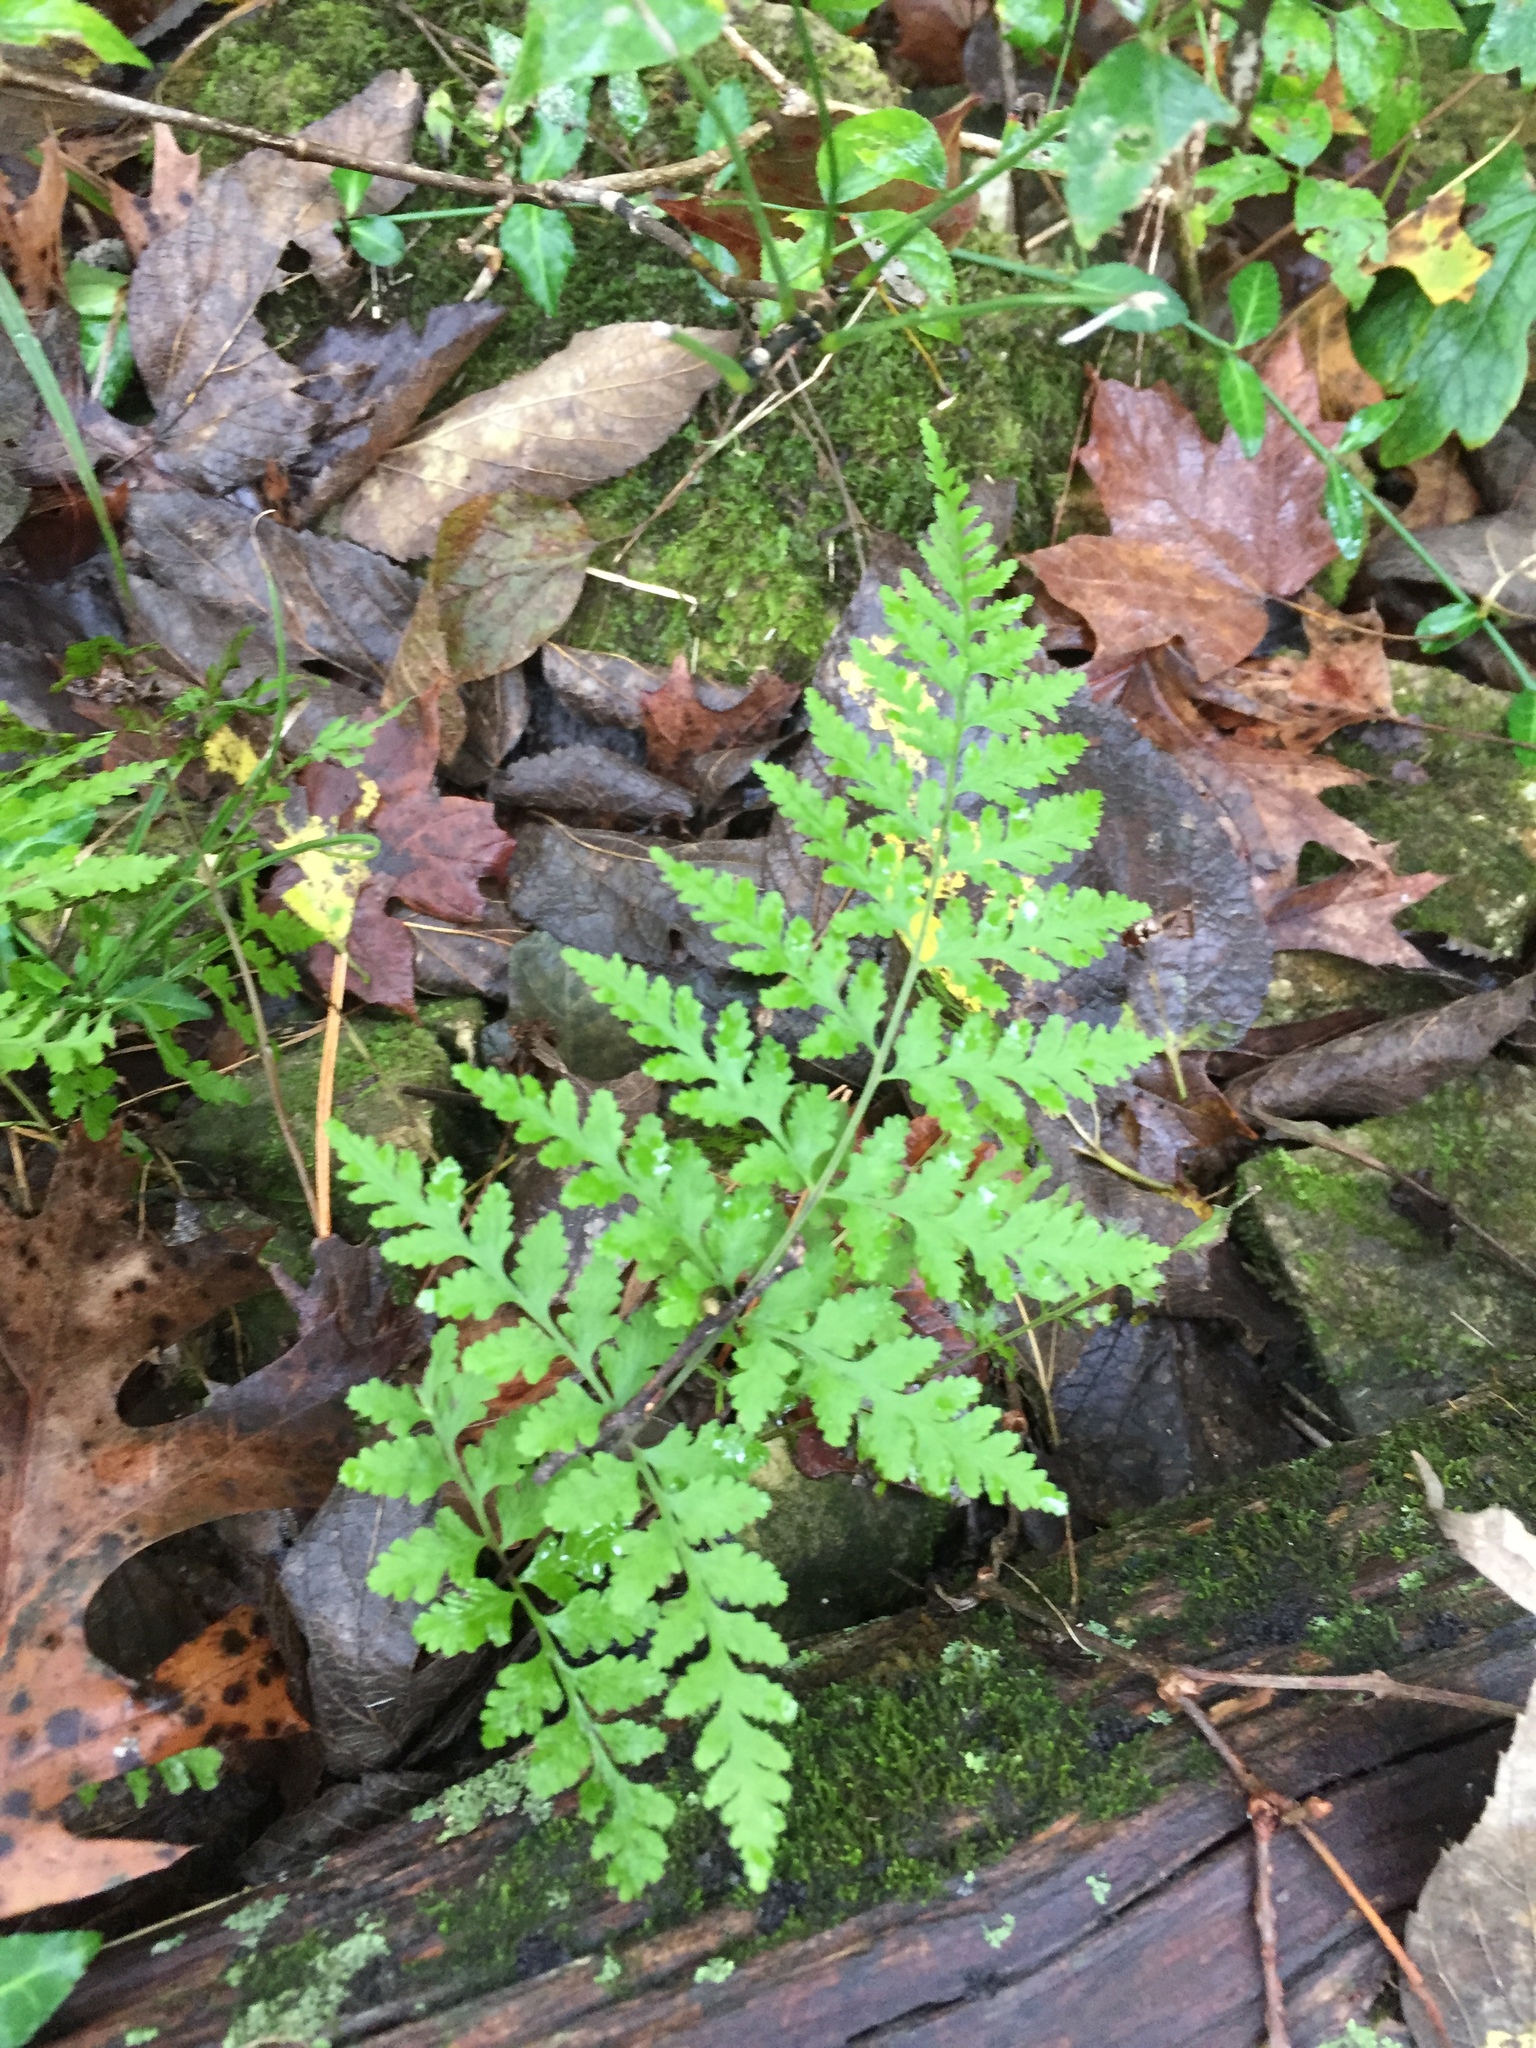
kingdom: Plantae
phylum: Tracheophyta
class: Polypodiopsida
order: Polypodiales
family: Cystopteridaceae
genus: Cystopteris
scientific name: Cystopteris bulbifera
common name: Bulblet bladder fern
